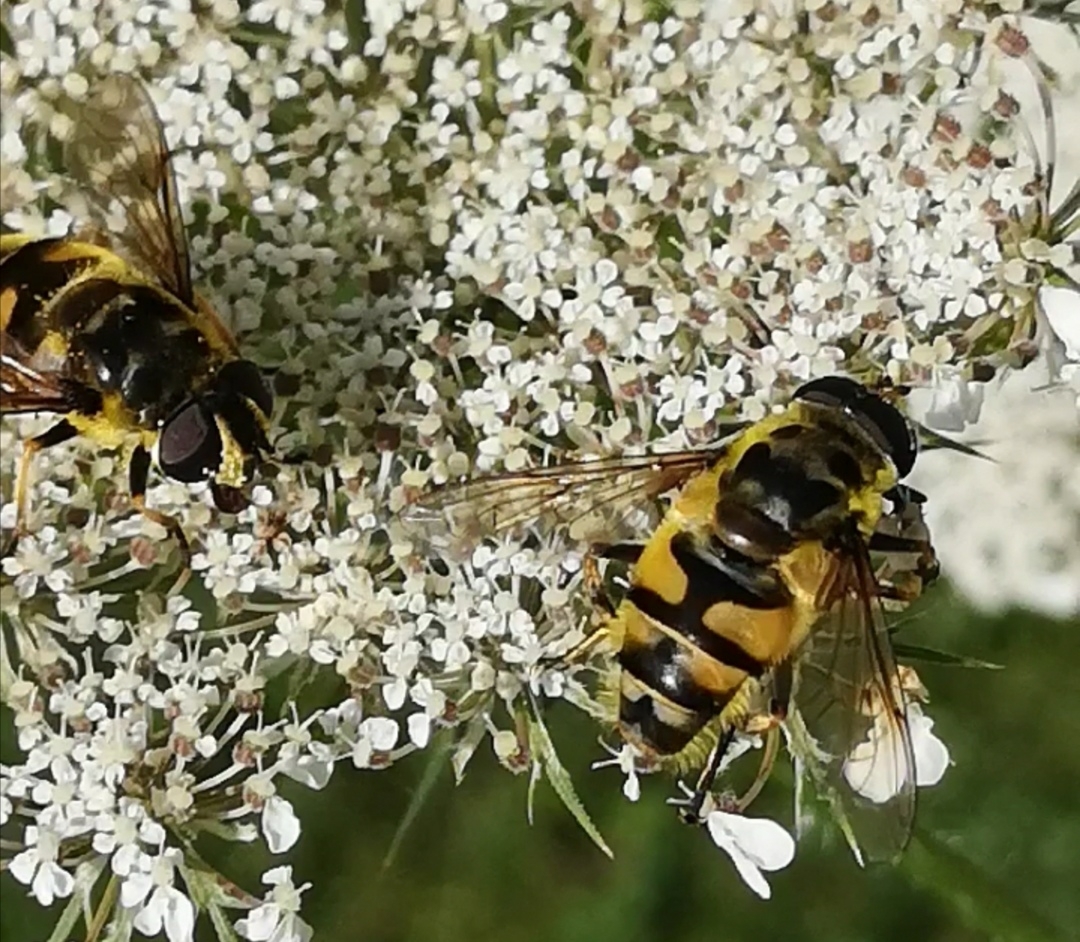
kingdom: Animalia
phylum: Arthropoda
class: Insecta
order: Diptera
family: Syrphidae
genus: Myathropa
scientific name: Myathropa florea
